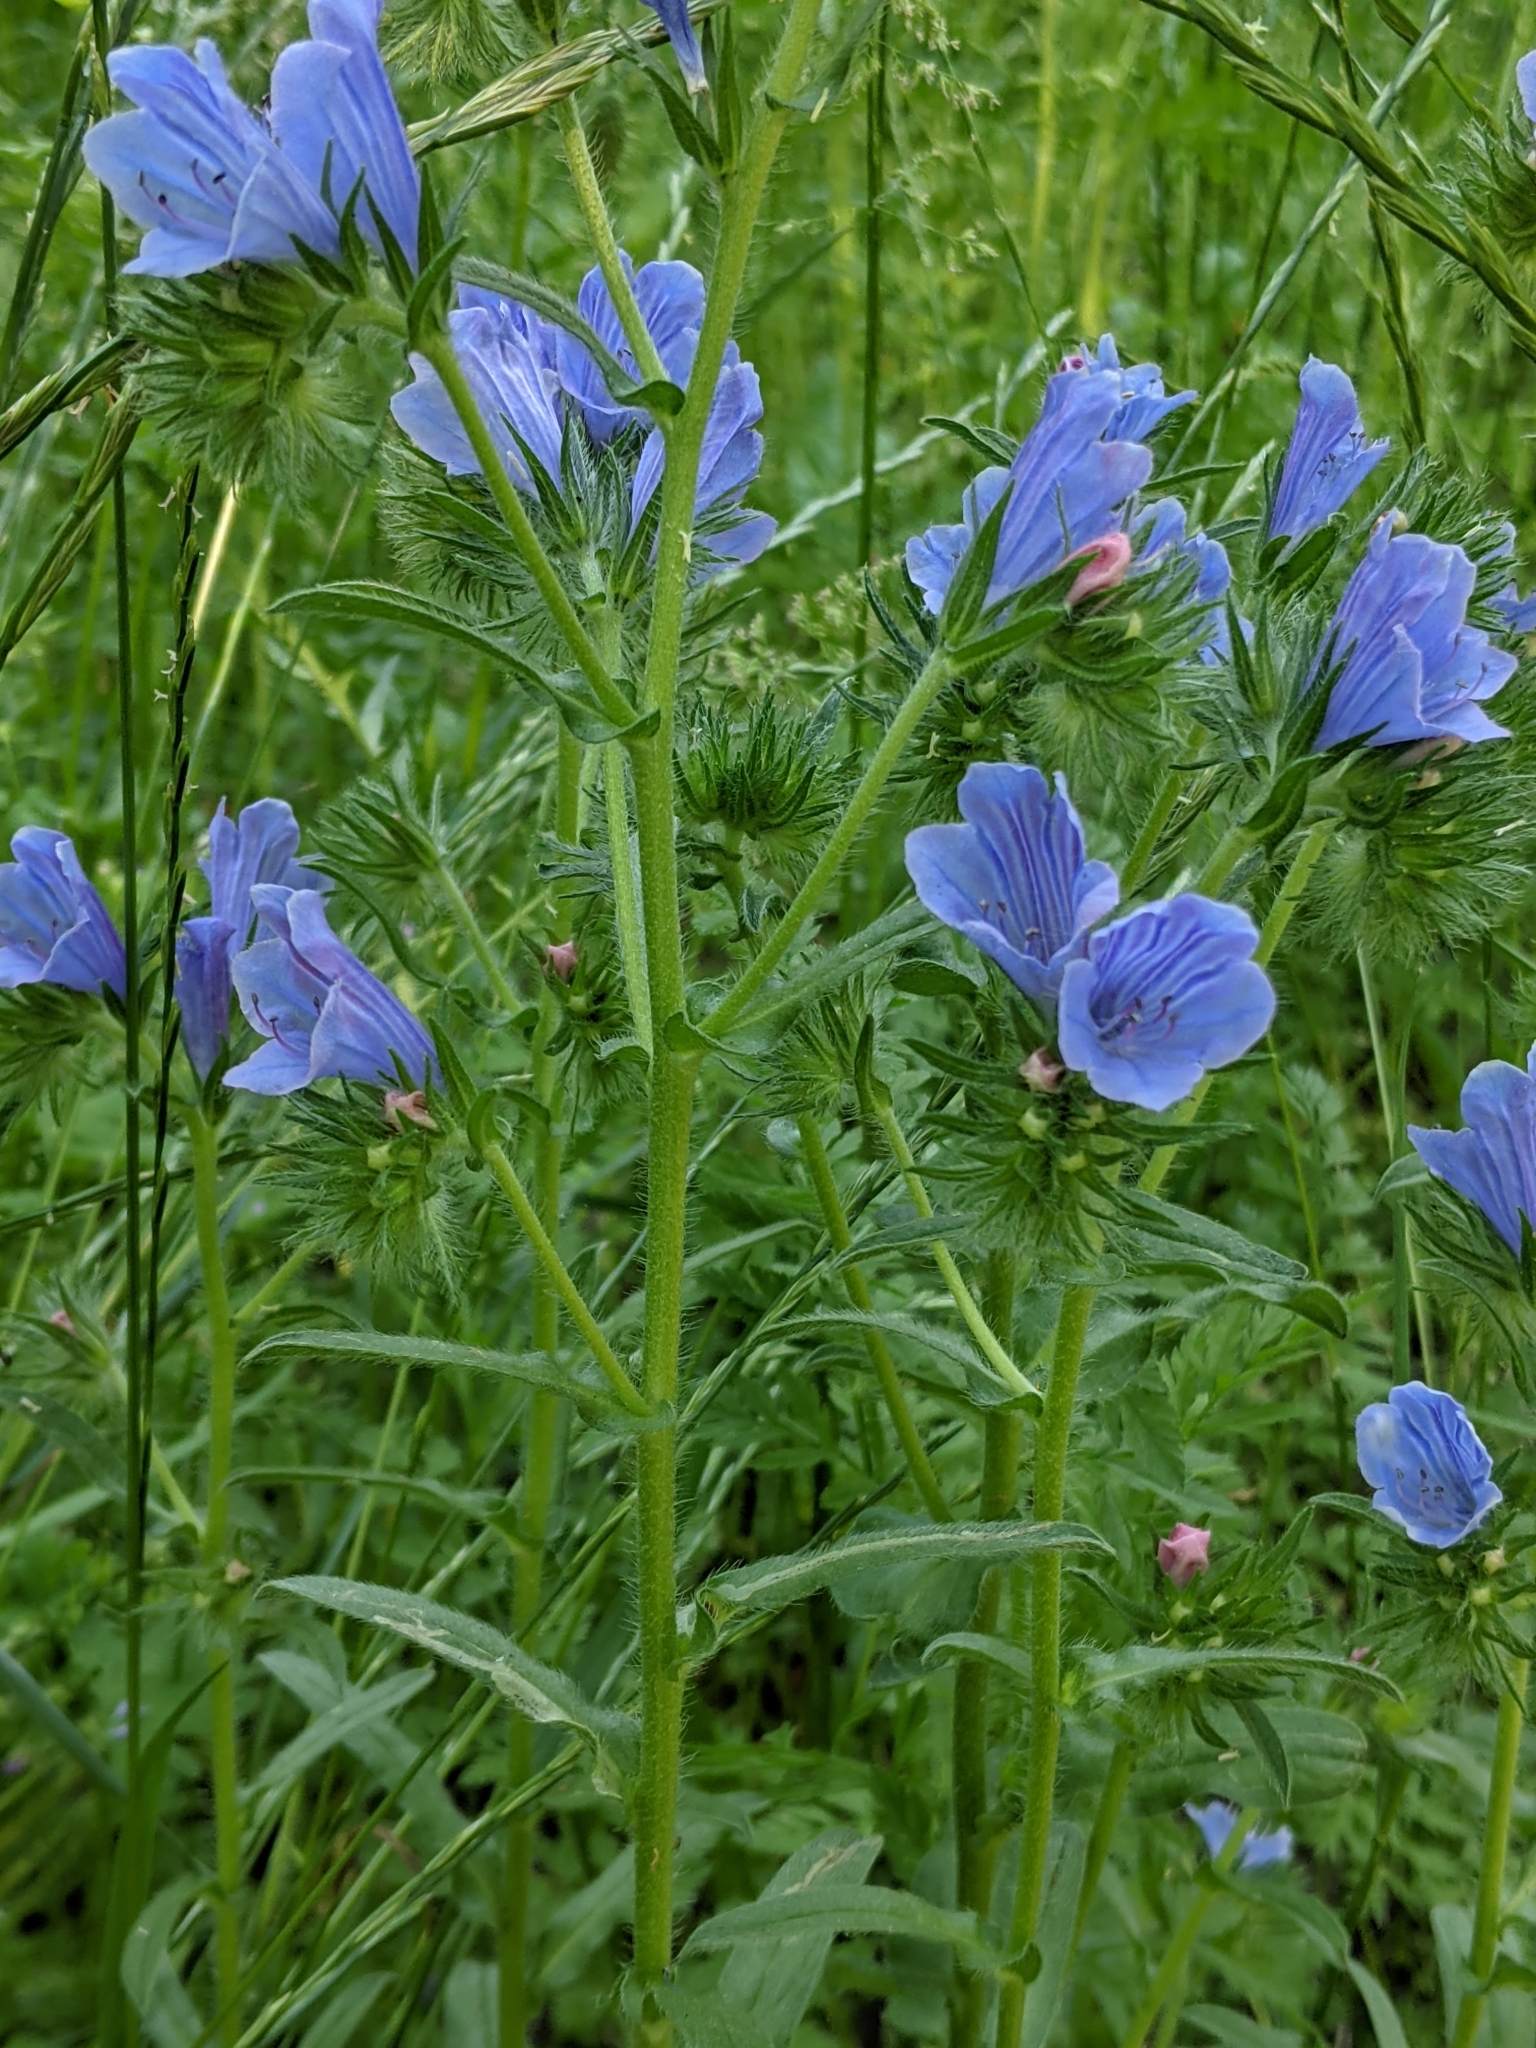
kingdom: Plantae
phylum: Tracheophyta
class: Magnoliopsida
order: Boraginales
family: Boraginaceae
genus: Echium
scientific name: Echium plantagineum
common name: Purple viper's-bugloss
